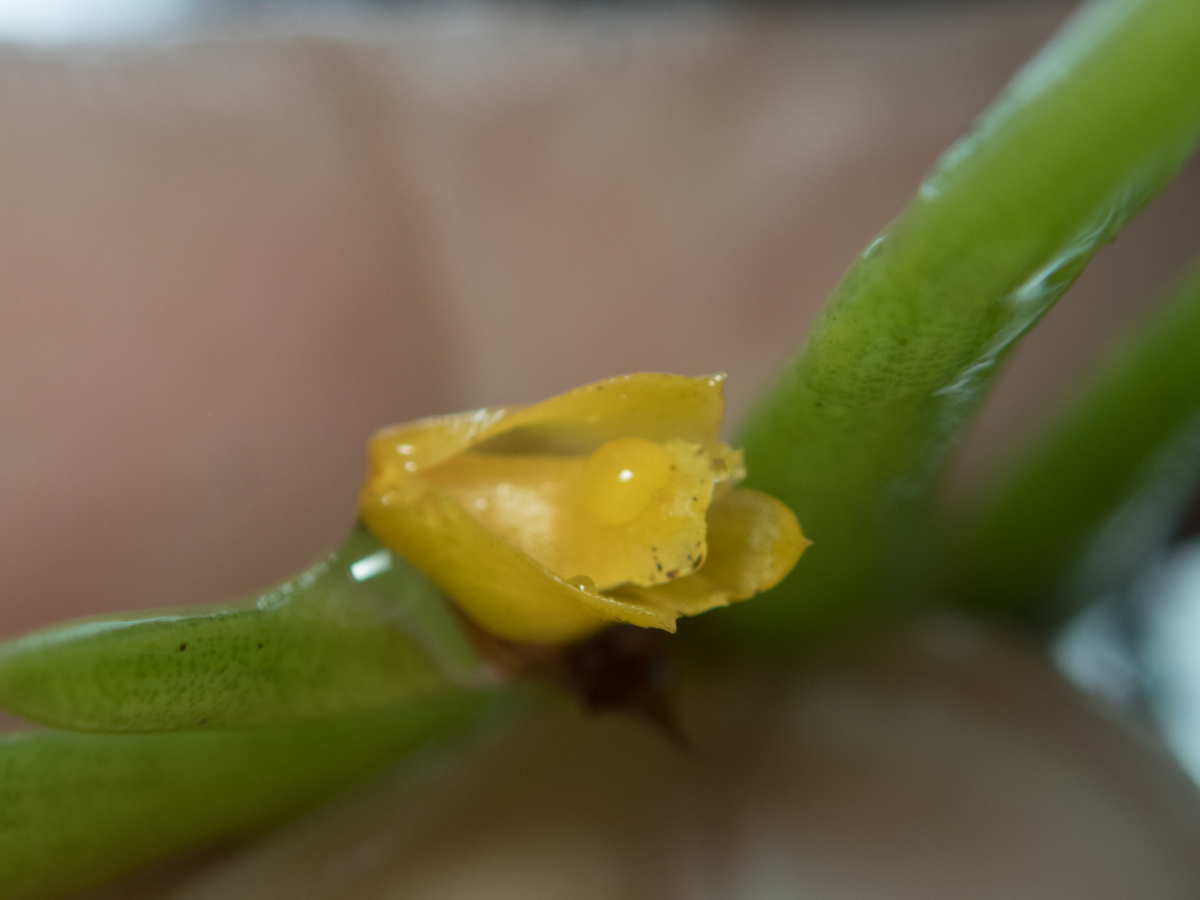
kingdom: Plantae
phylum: Tracheophyta
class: Liliopsida
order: Asparagales
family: Orchidaceae
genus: Oxystophyllum
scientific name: Oxystophyllum carnosum
